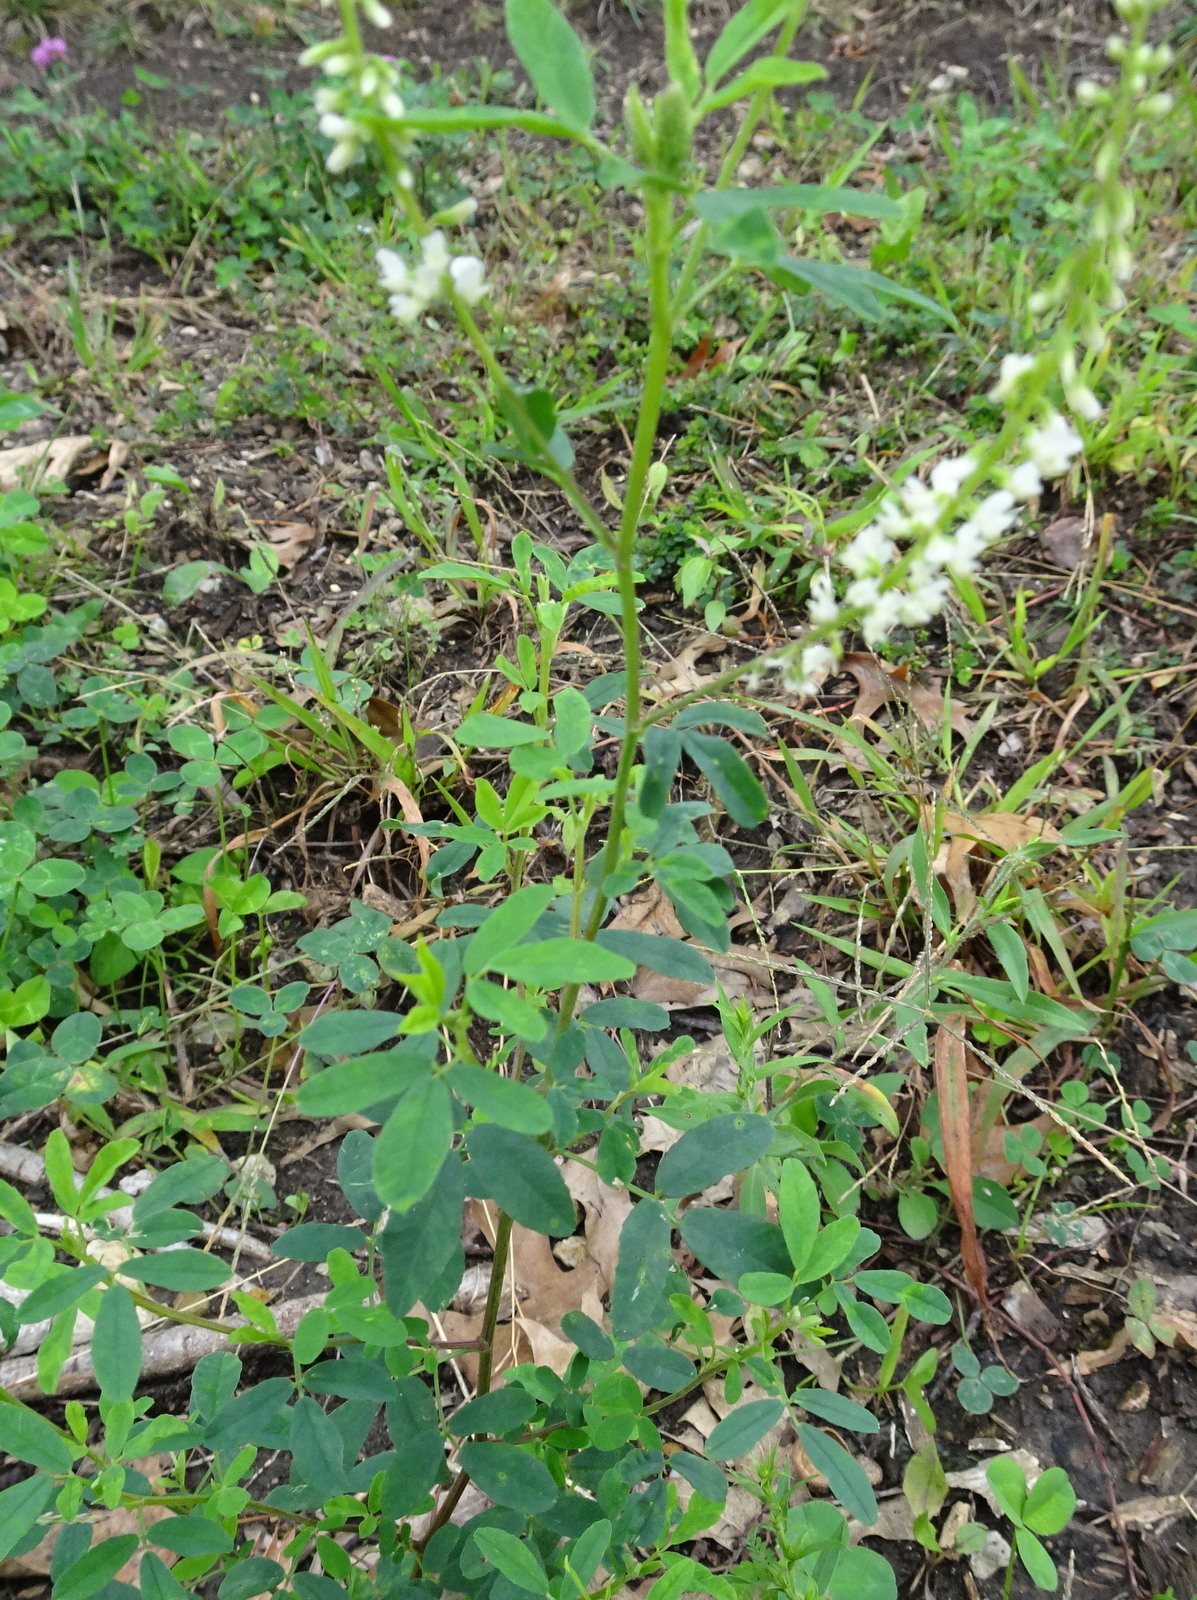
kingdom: Plantae
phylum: Tracheophyta
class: Magnoliopsida
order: Fabales
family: Fabaceae
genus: Melilotus
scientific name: Melilotus albus
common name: White melilot
